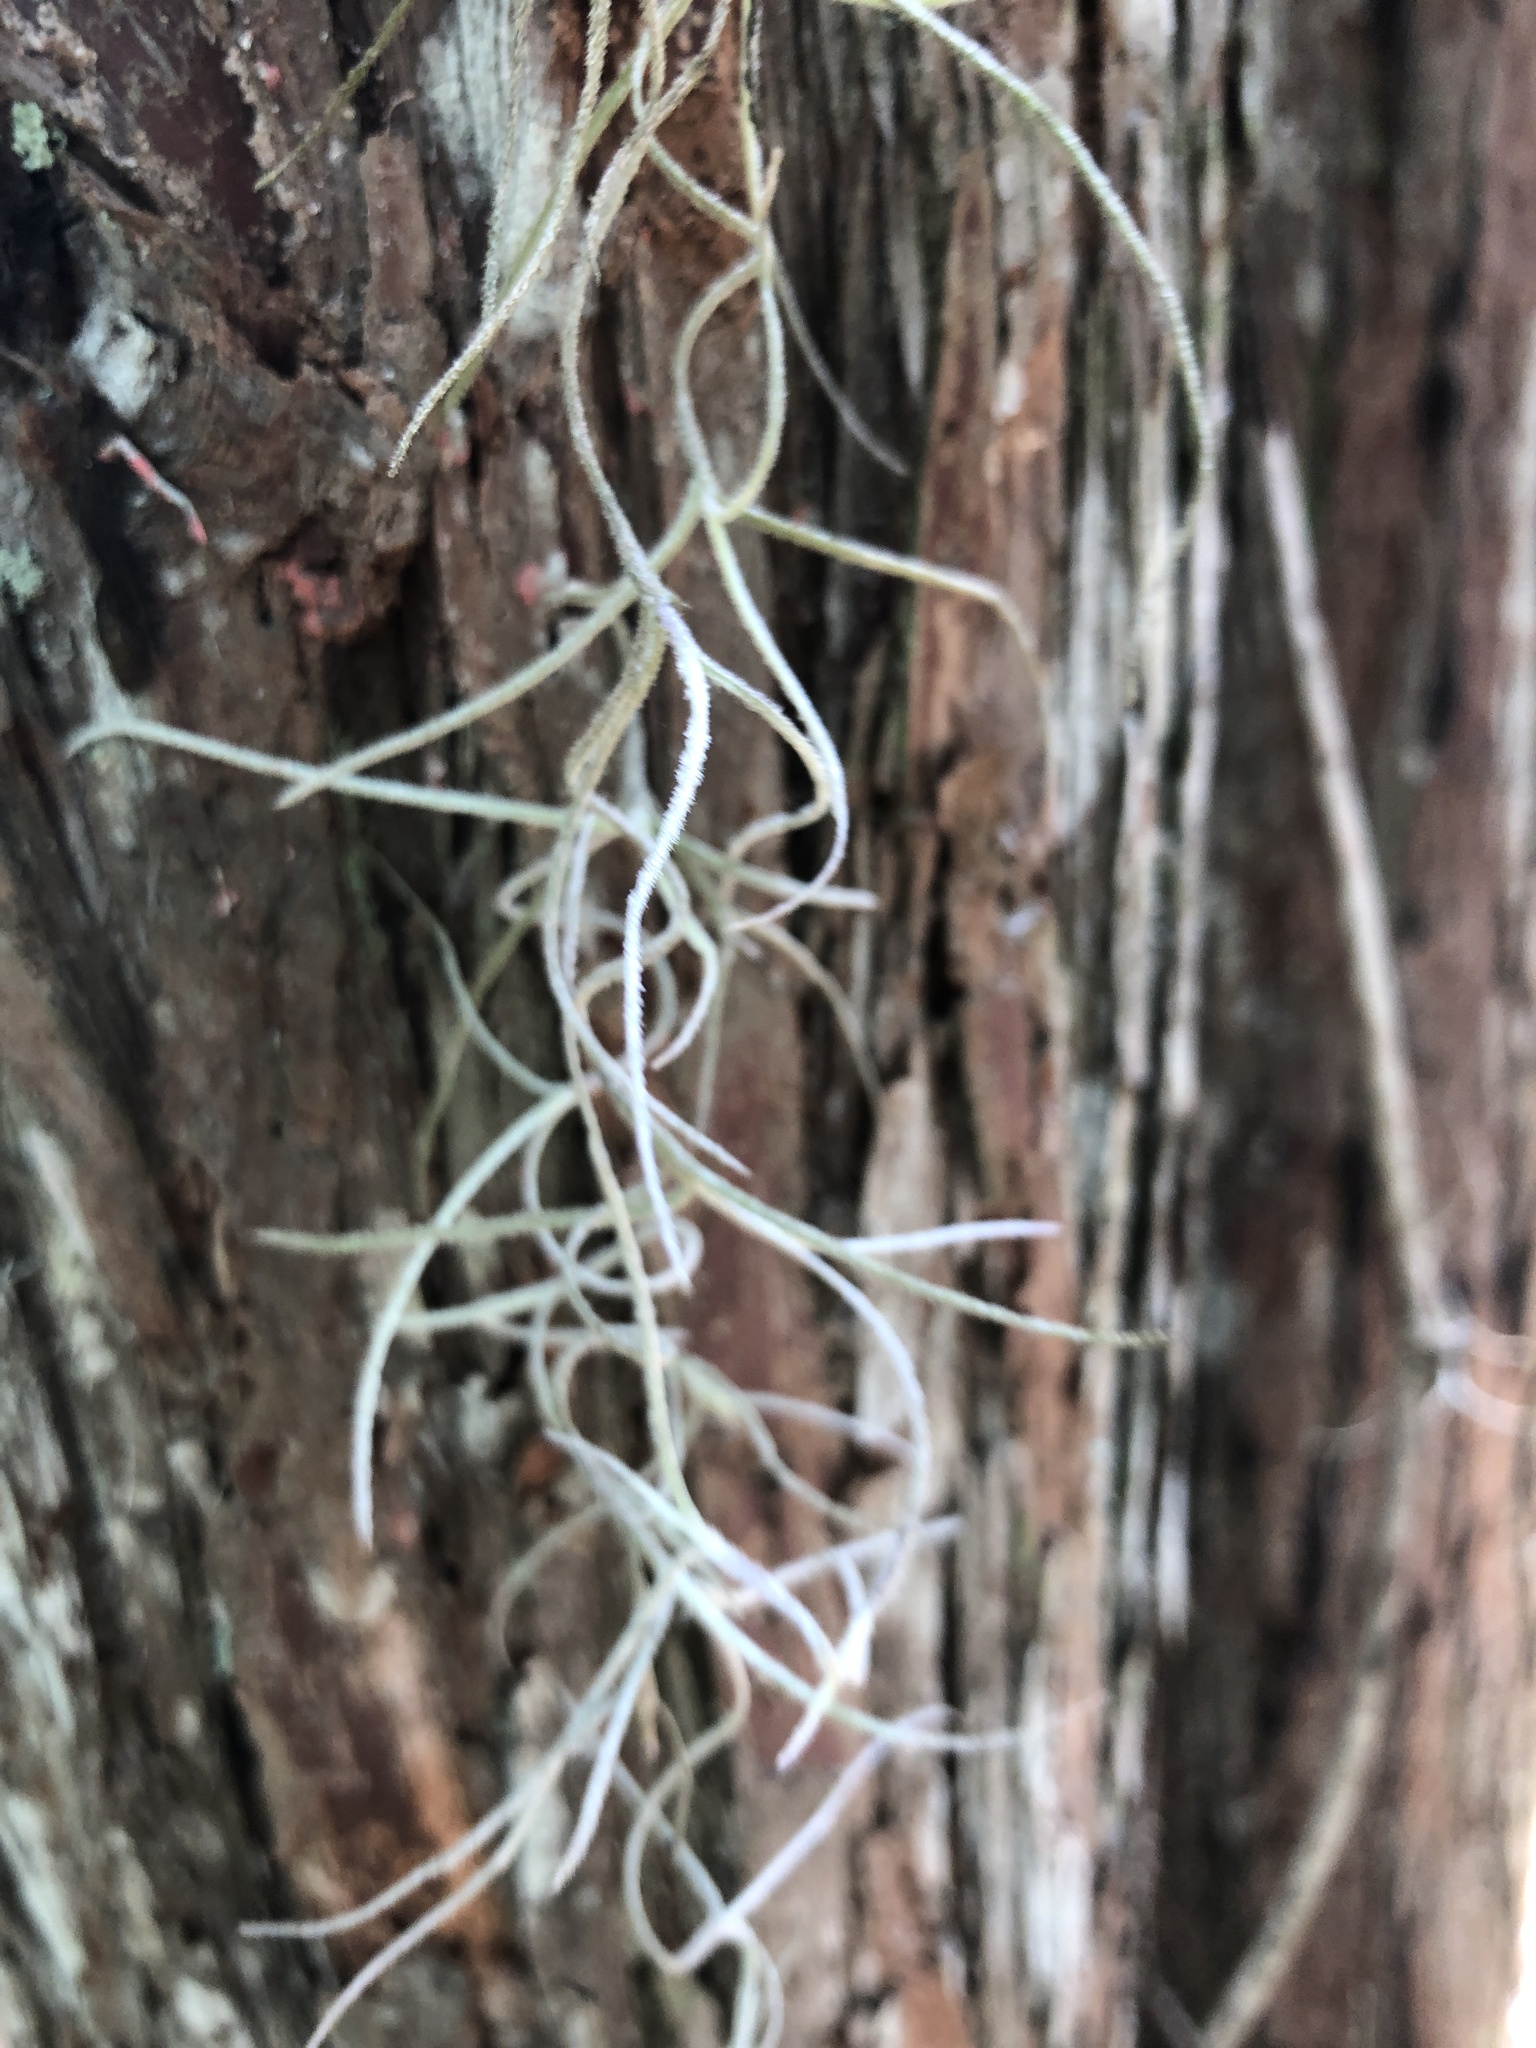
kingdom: Plantae
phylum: Tracheophyta
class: Liliopsida
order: Poales
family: Bromeliaceae
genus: Tillandsia
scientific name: Tillandsia usneoides
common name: Spanish moss
